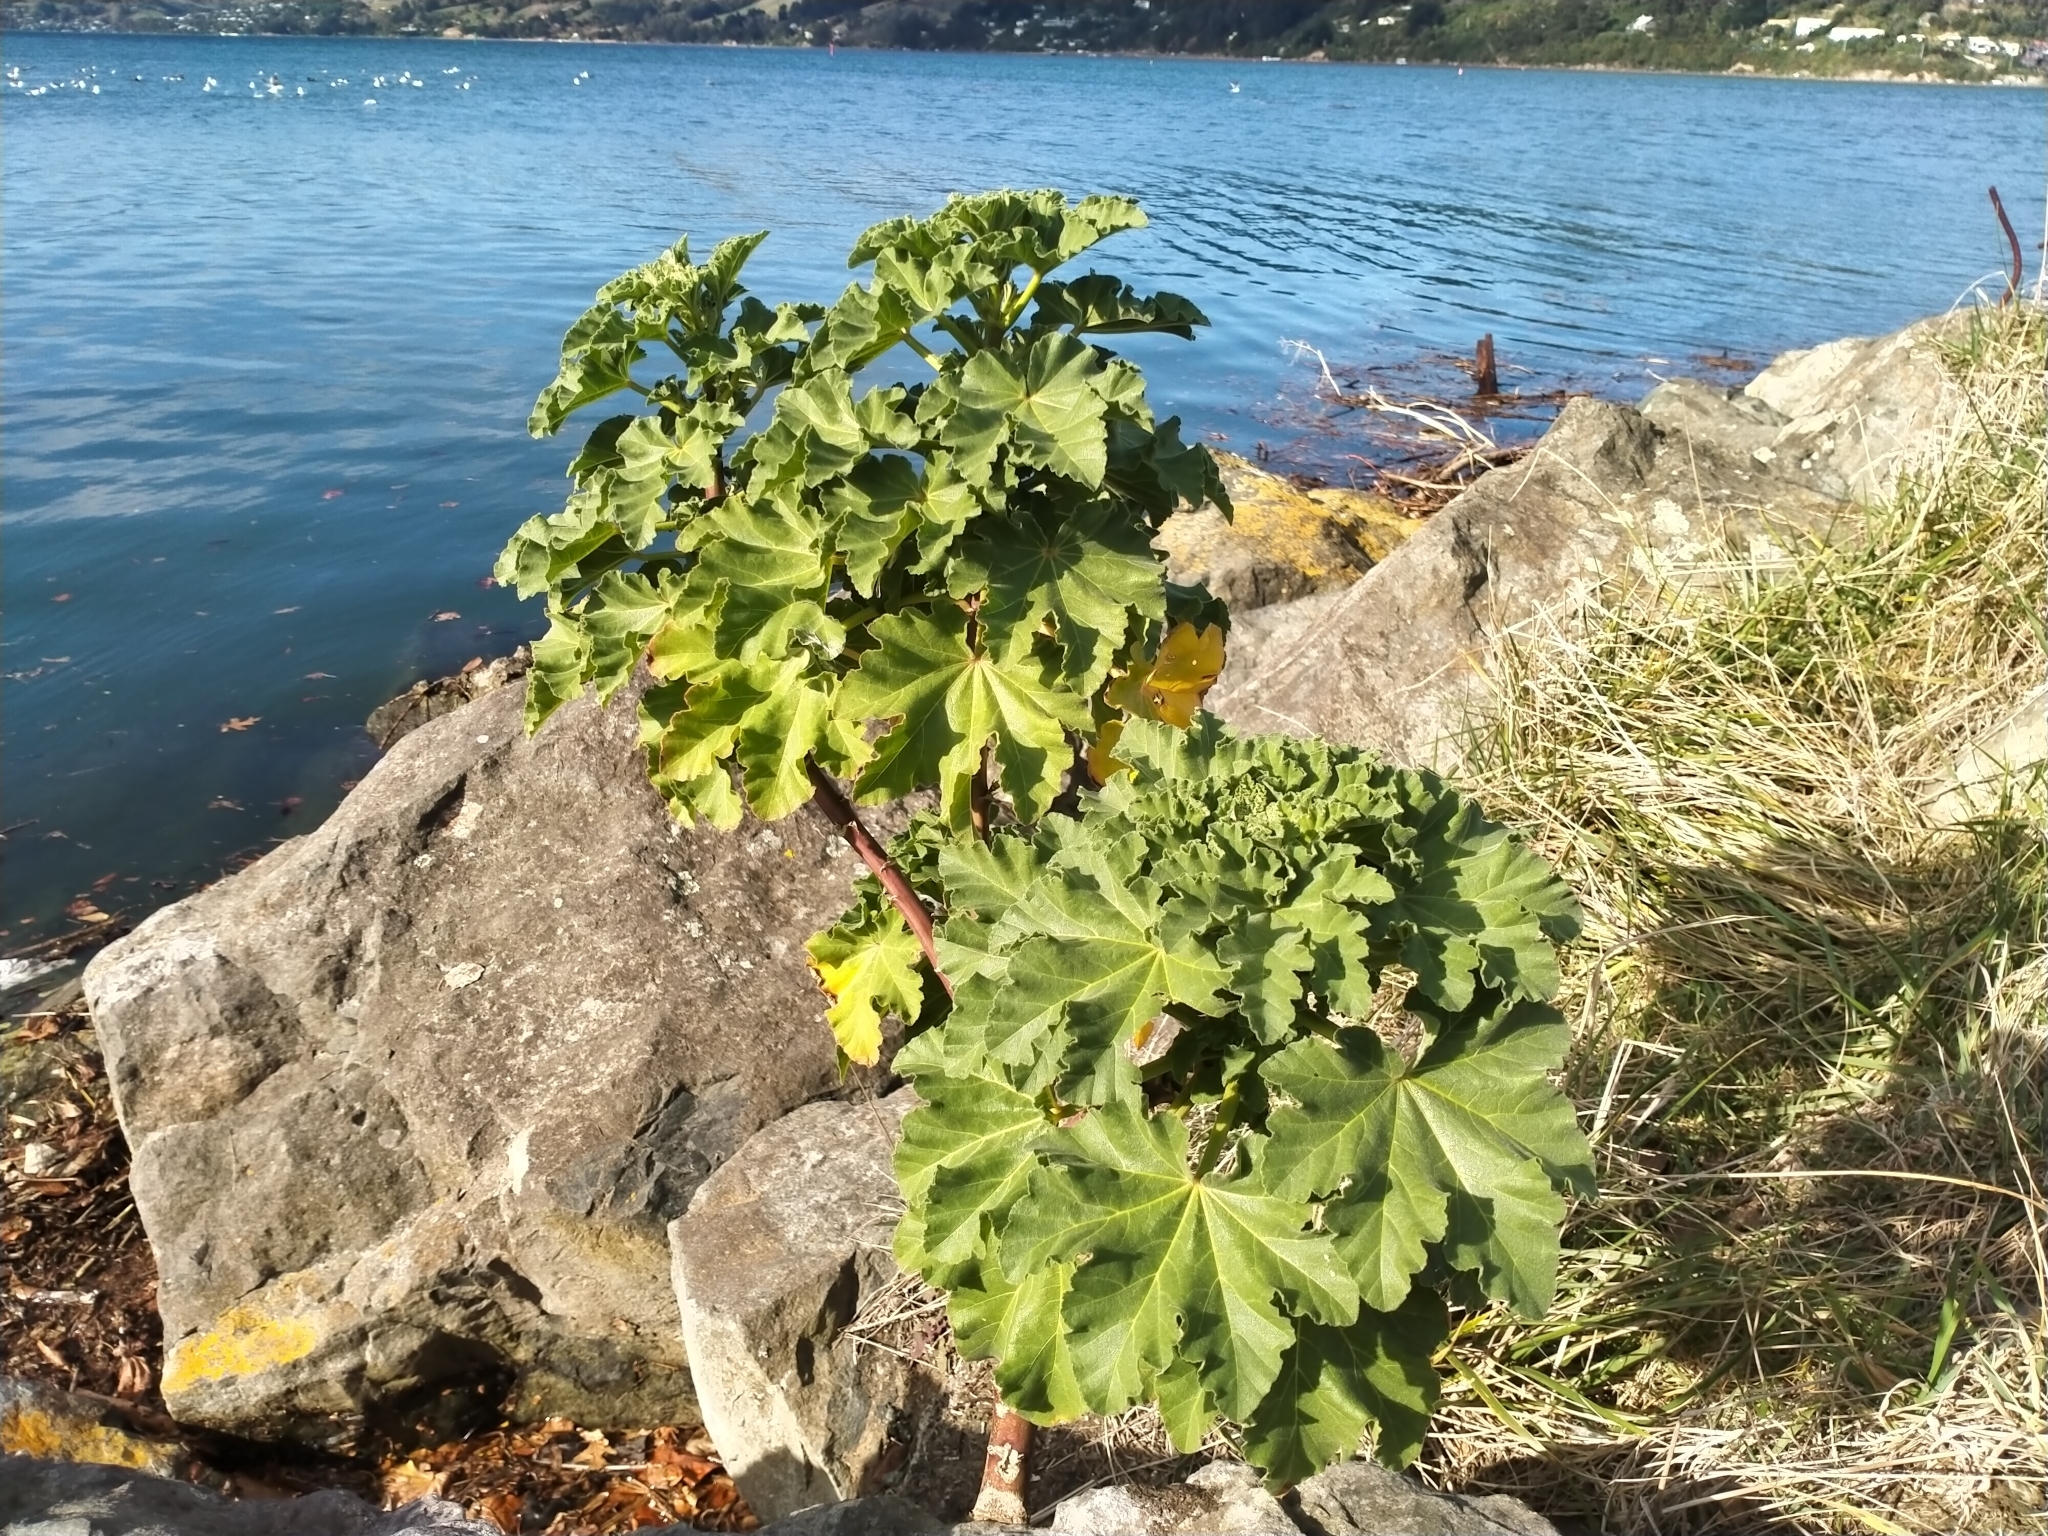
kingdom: Plantae
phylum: Tracheophyta
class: Magnoliopsida
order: Malvales
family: Malvaceae
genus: Malva
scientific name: Malva arborea
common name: Tree mallow
